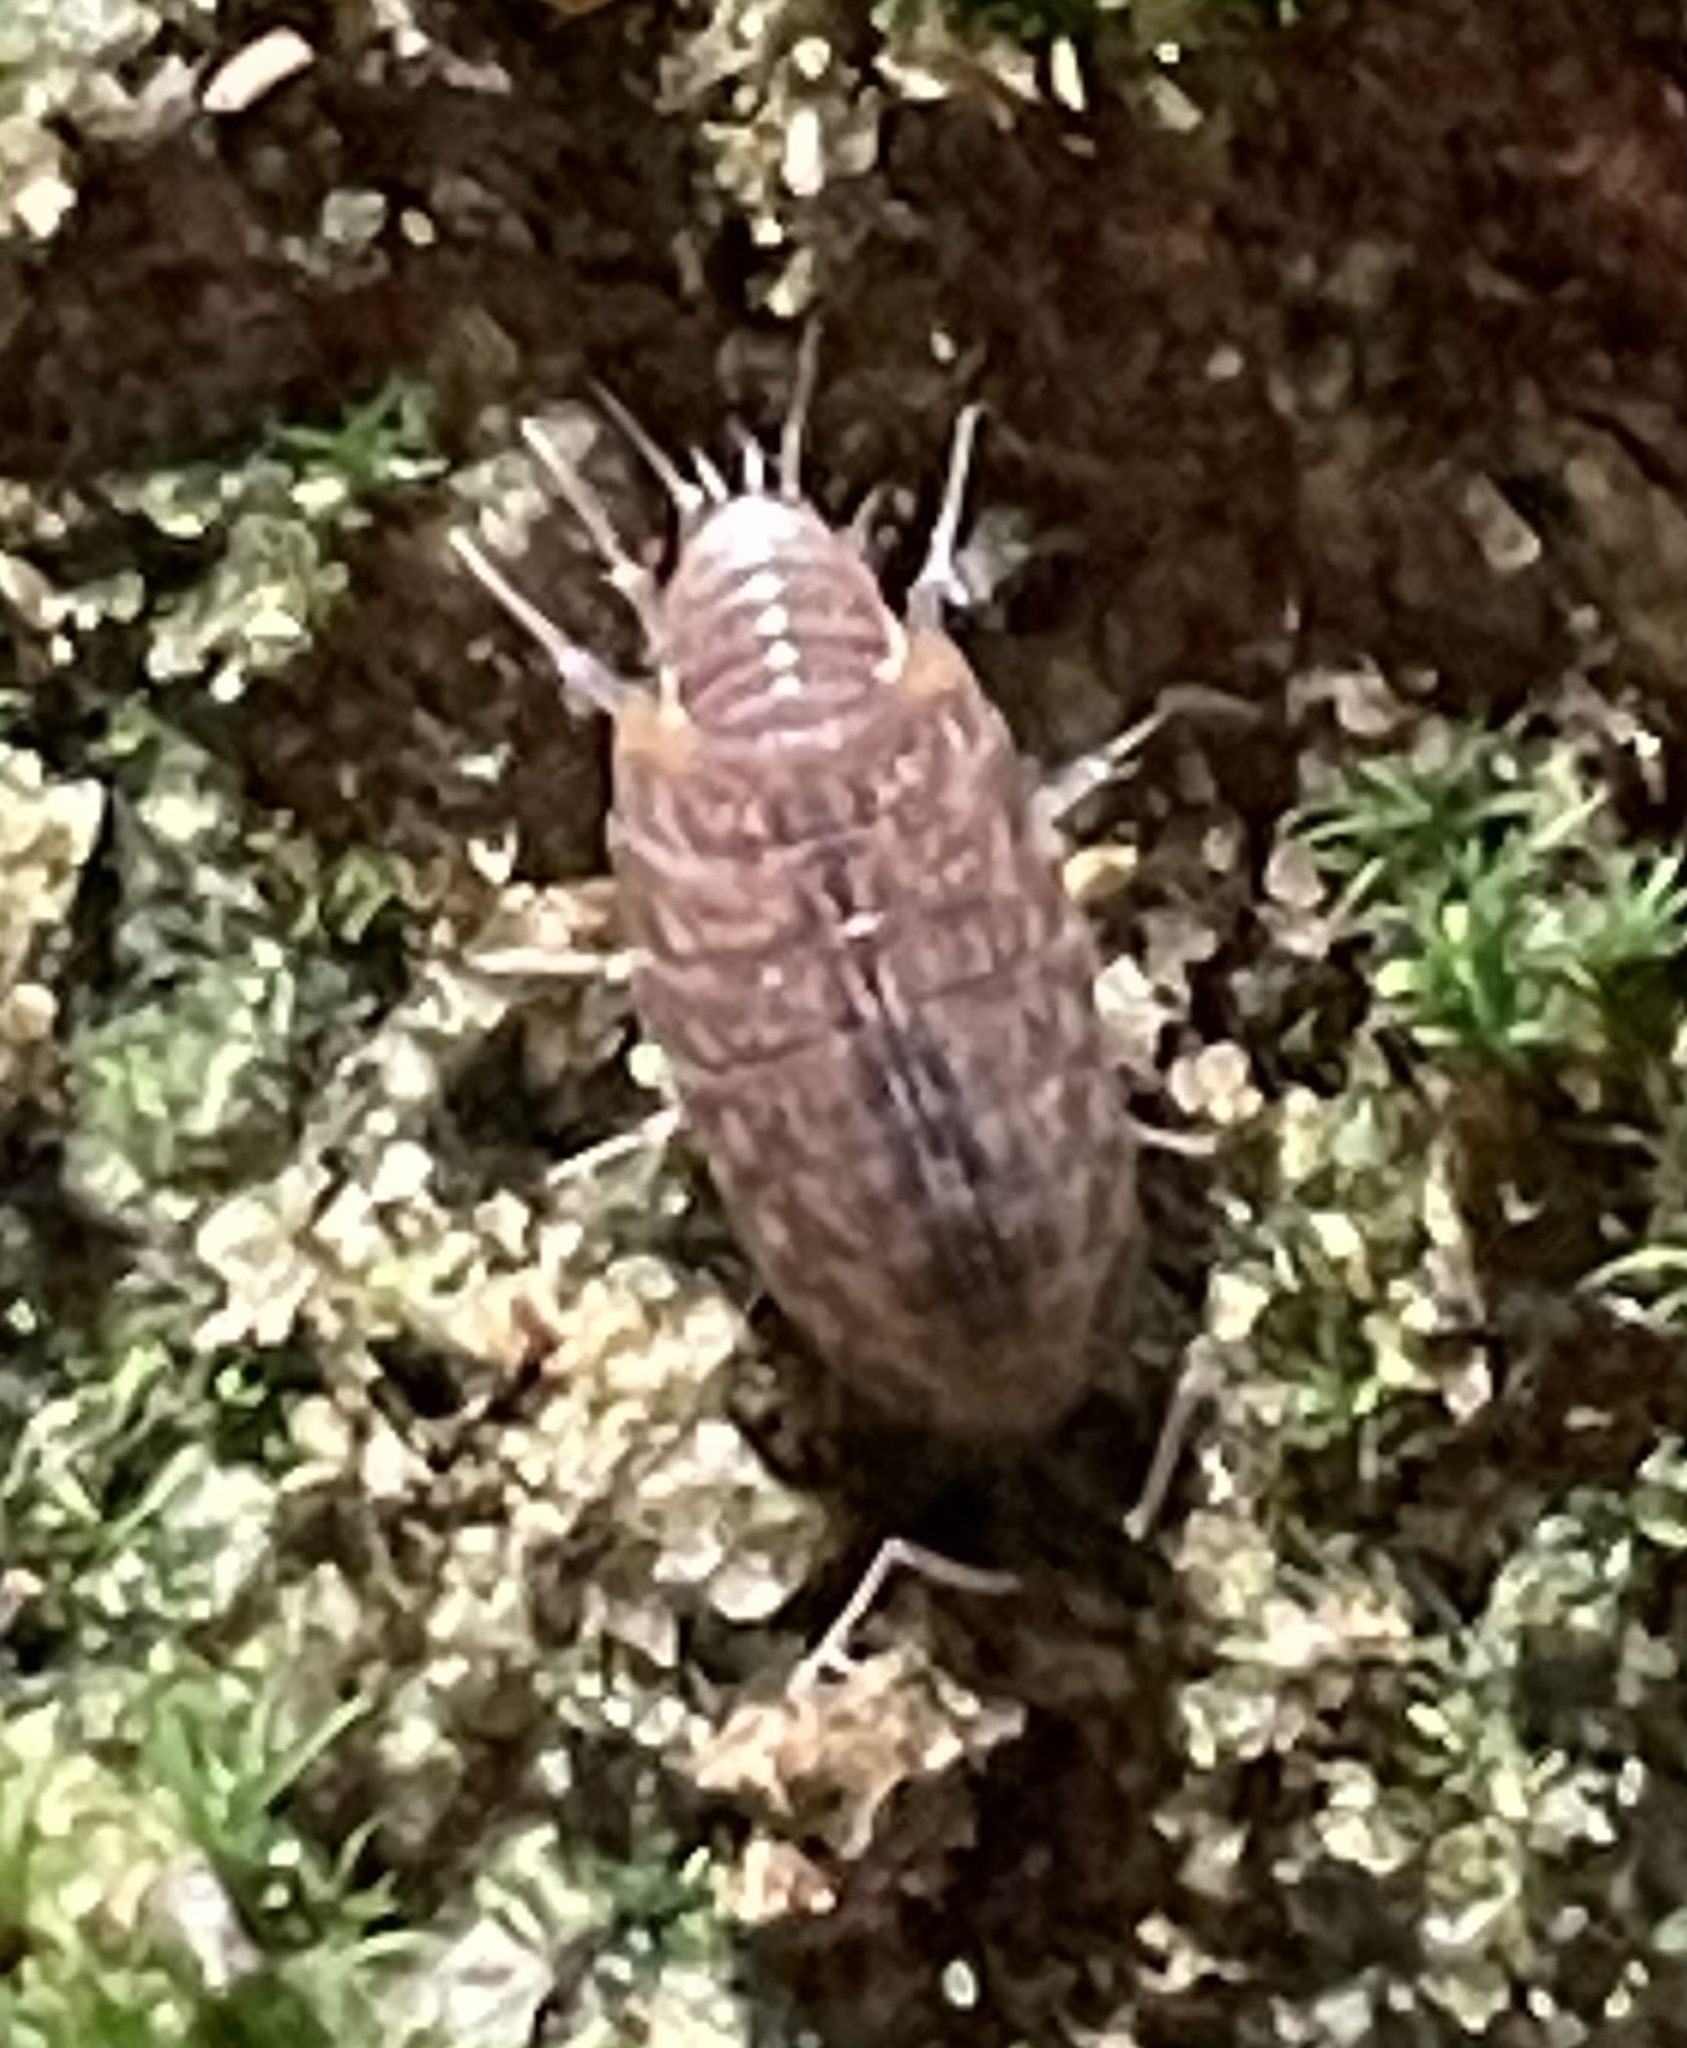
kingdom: Animalia
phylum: Arthropoda
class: Malacostraca
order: Isopoda
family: Philosciidae
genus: Chaetophiloscia
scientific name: Chaetophiloscia cellaria
